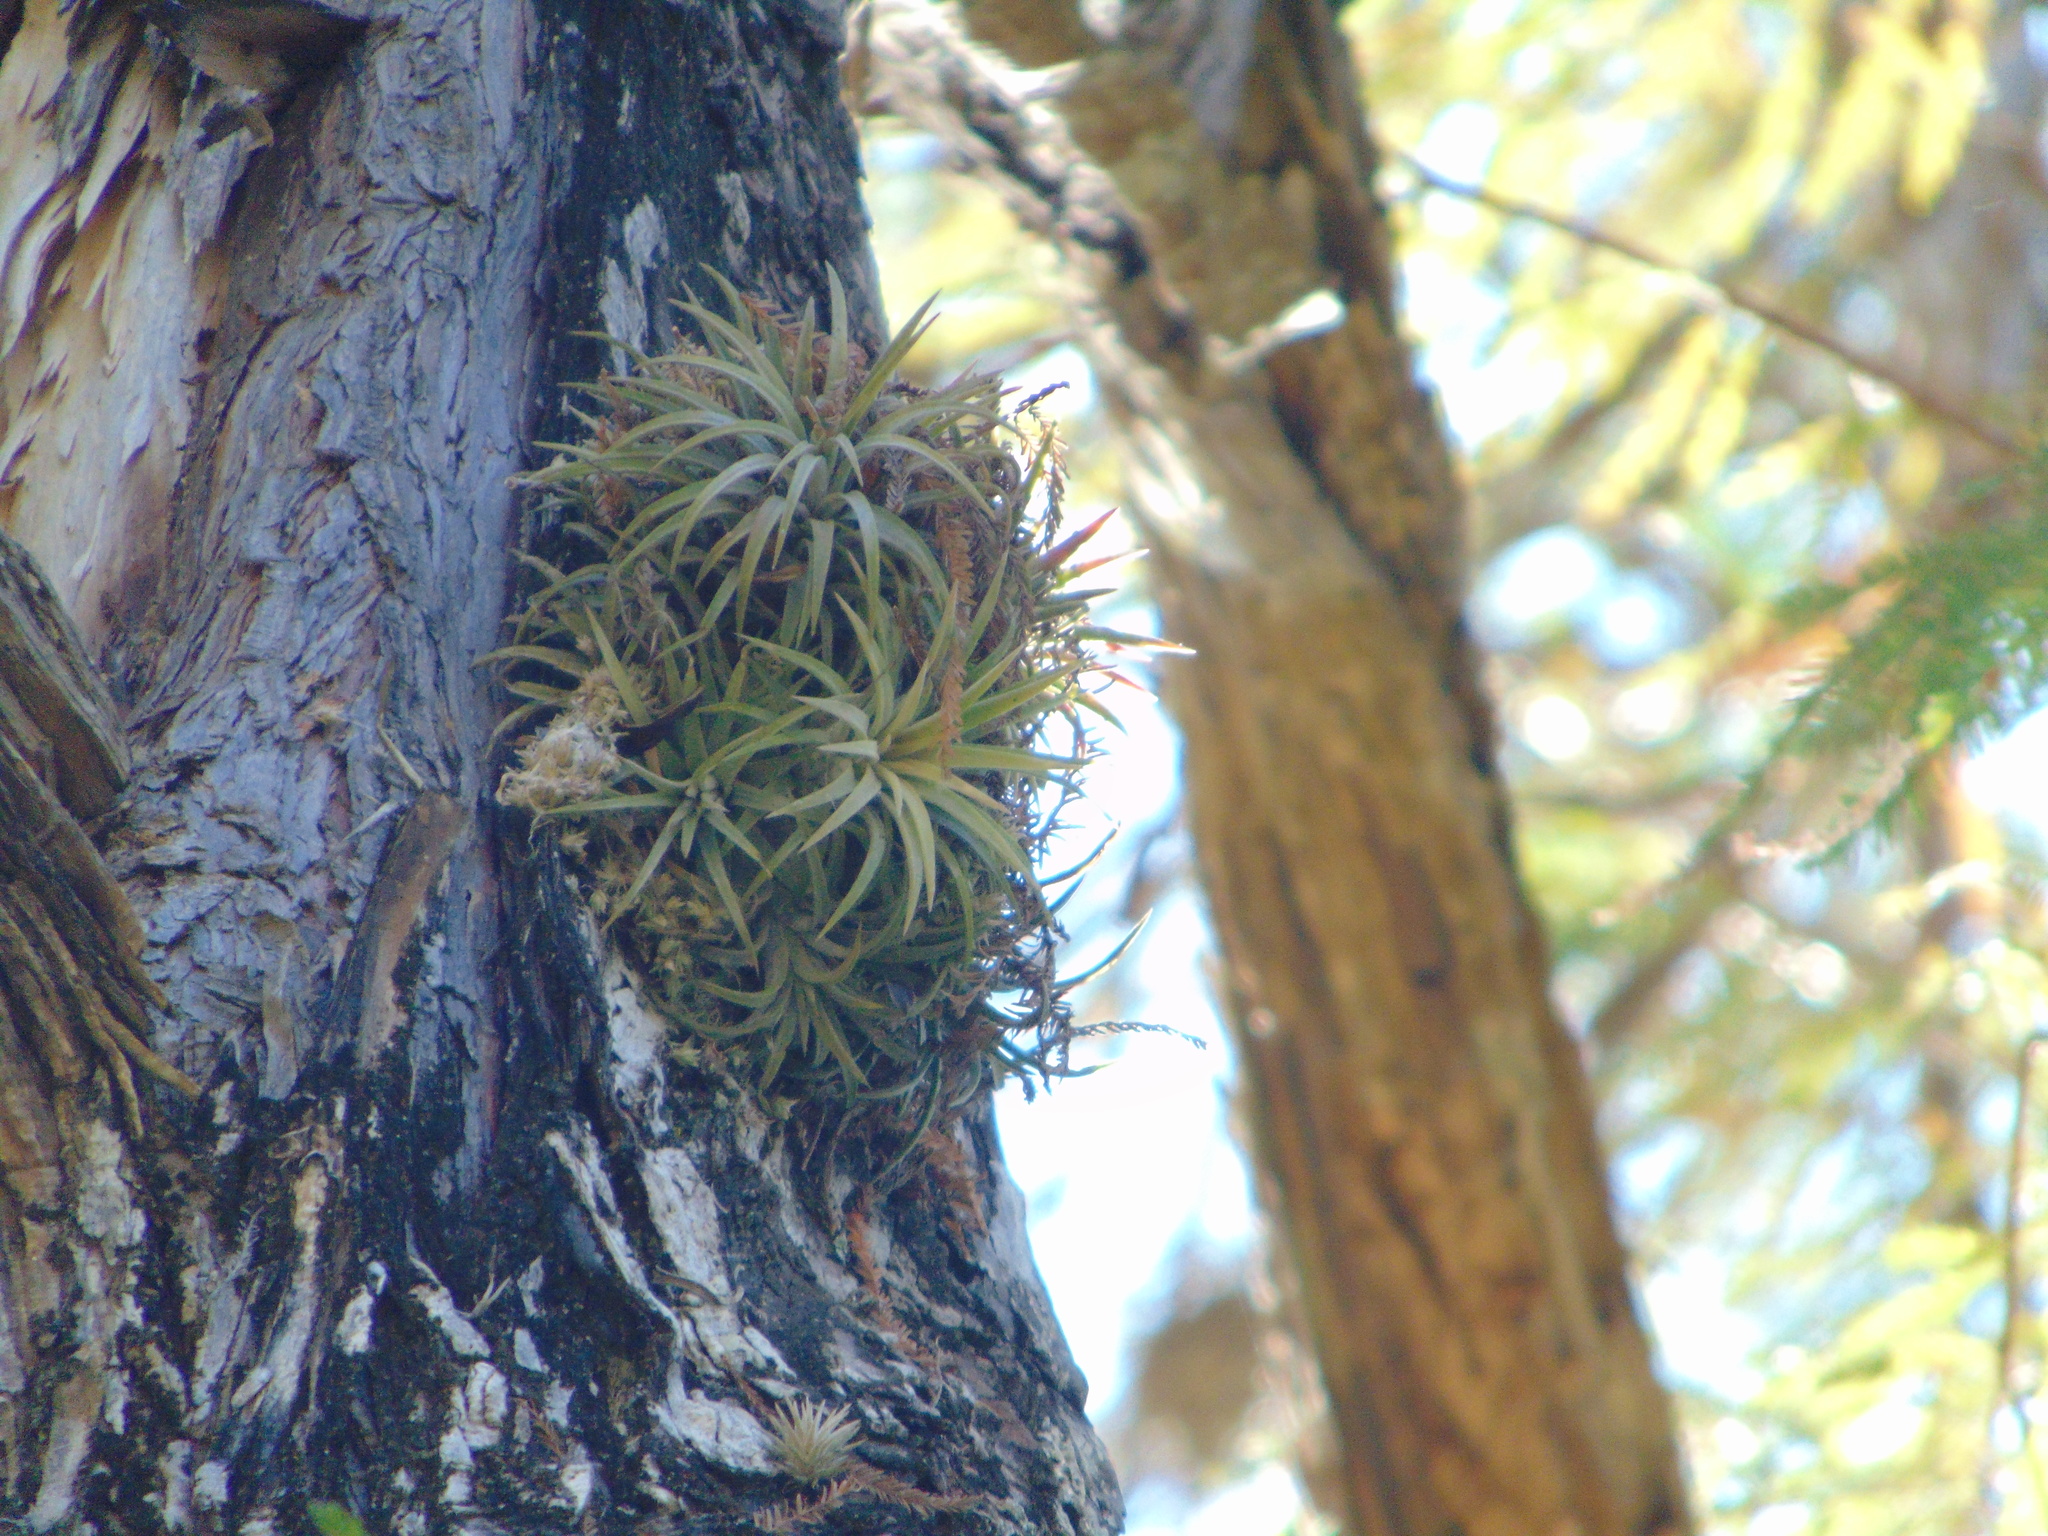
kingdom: Plantae
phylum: Tracheophyta
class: Liliopsida
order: Poales
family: Bromeliaceae
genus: Tillandsia
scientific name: Tillandsia ionantha
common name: Sky plant
